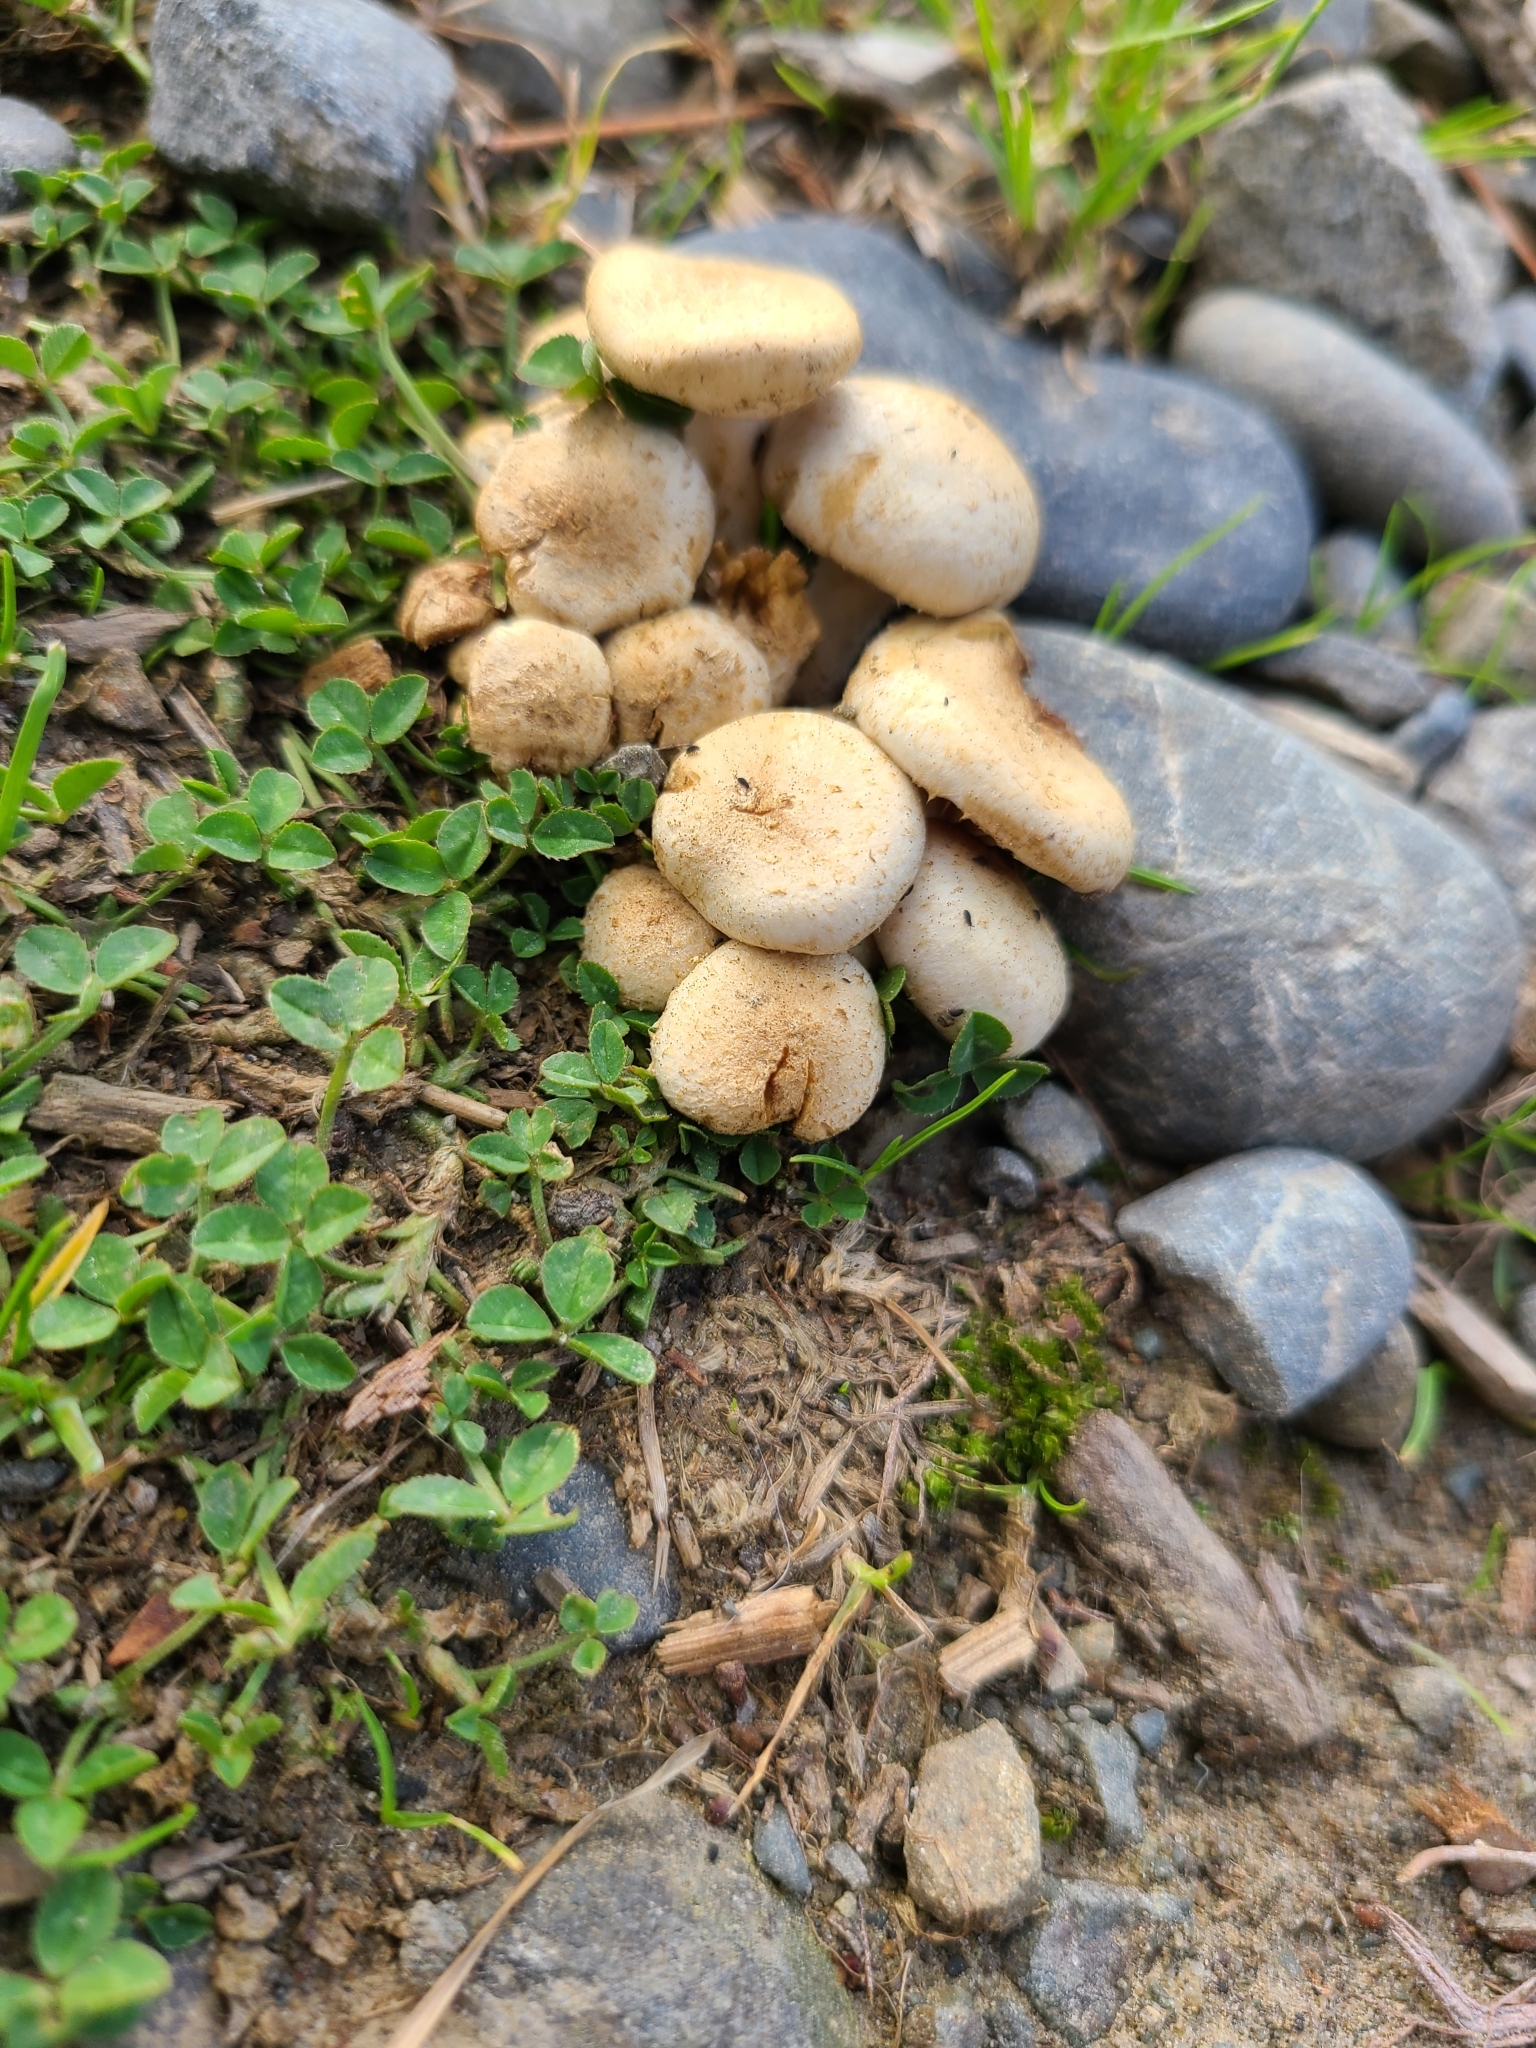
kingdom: Fungi
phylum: Basidiomycota
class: Agaricomycetes
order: Agaricales
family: Strophariaceae
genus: Pholiota
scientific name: Pholiota gummosa
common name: Sticky scalycap
